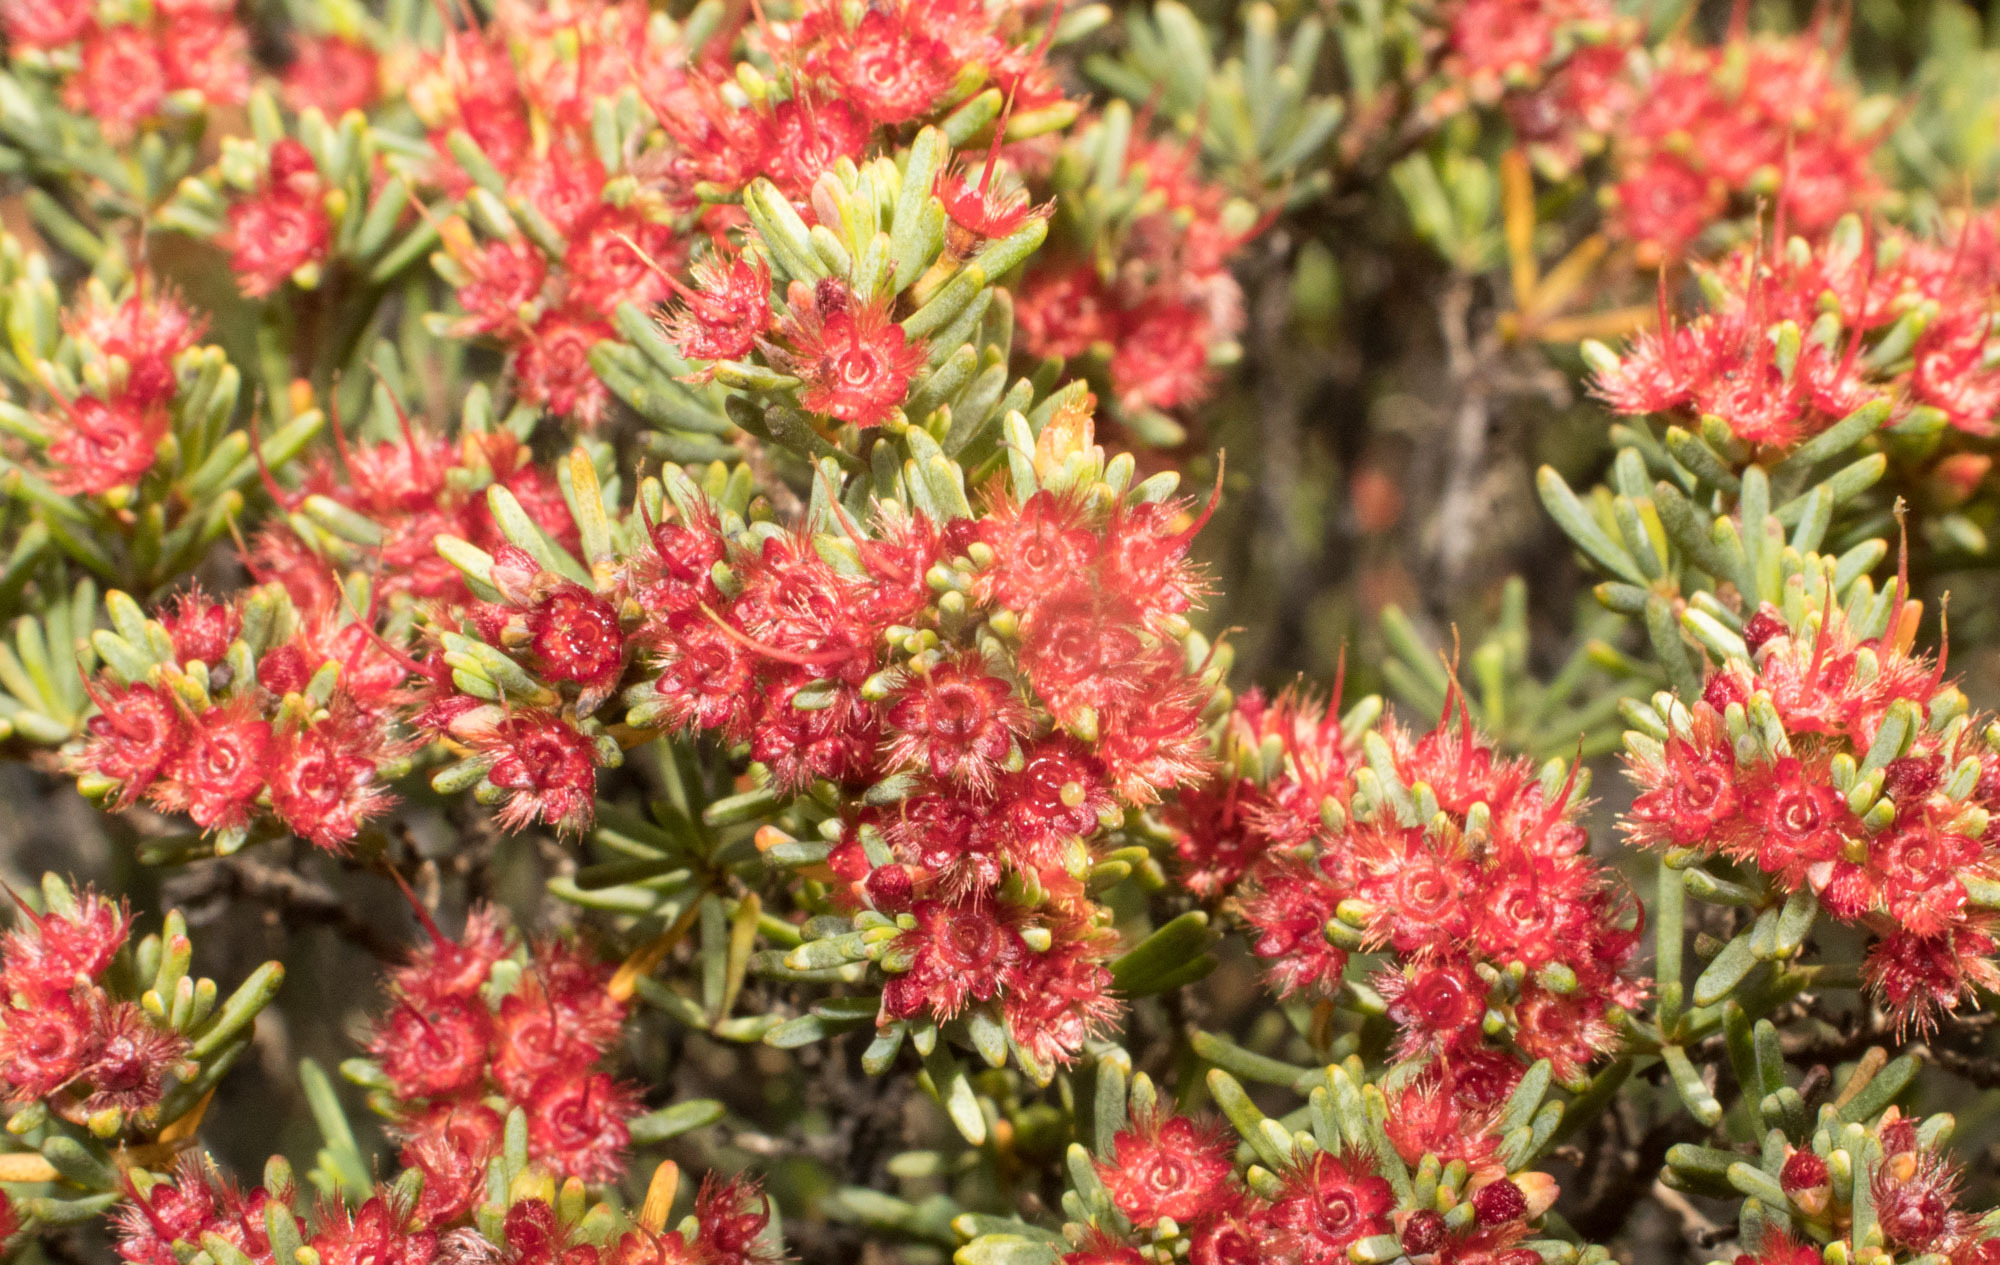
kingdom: Plantae
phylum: Tracheophyta
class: Magnoliopsida
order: Myrtales
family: Myrtaceae
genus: Verticordia
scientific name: Verticordia fastigiata
